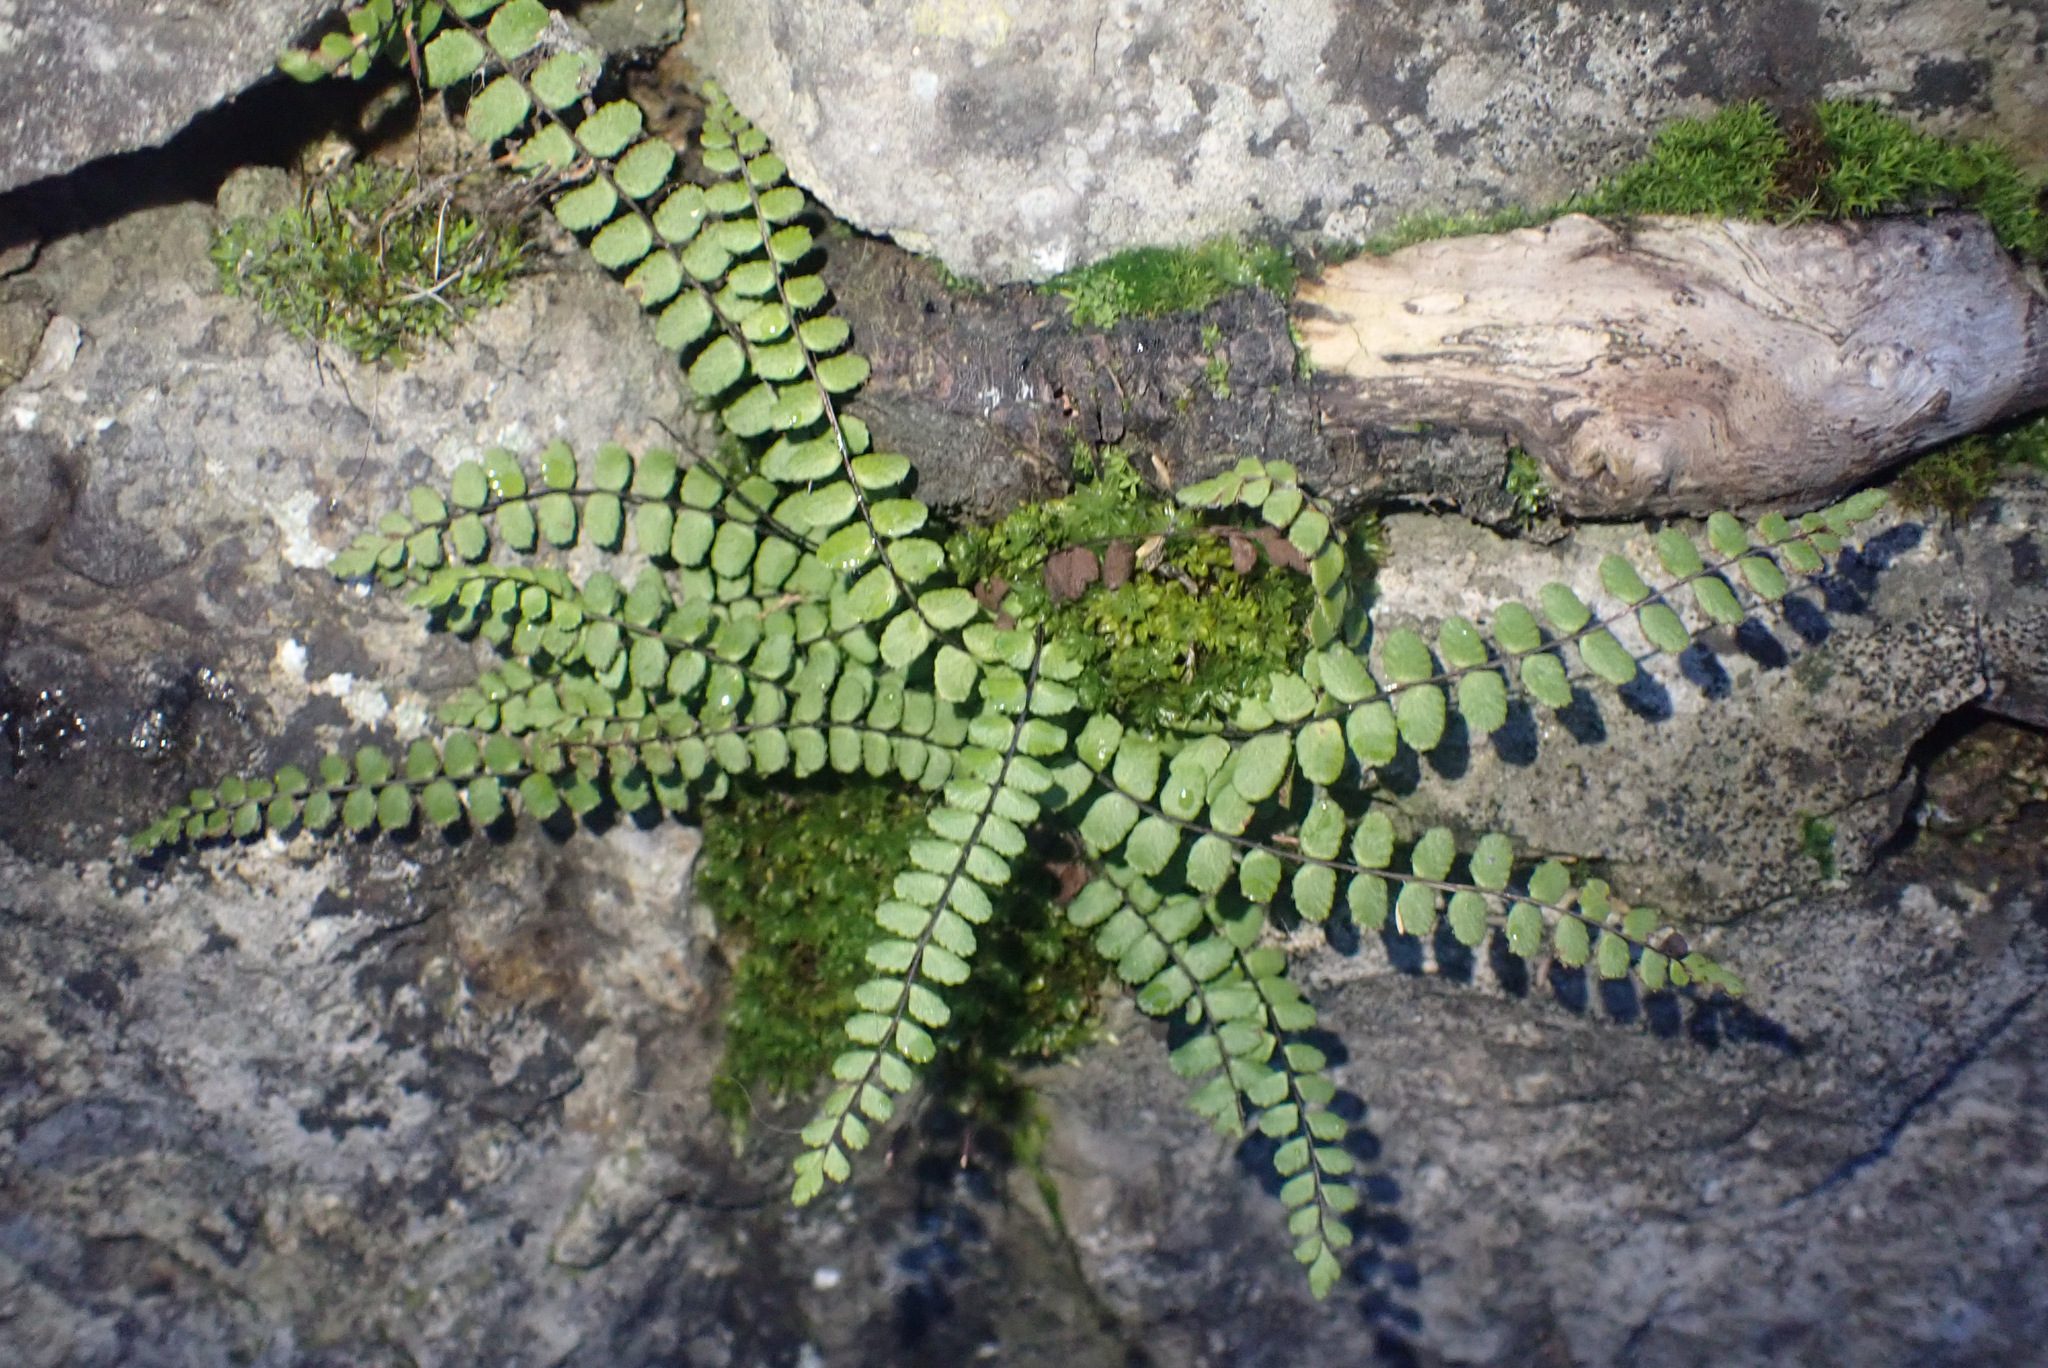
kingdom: Plantae
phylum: Tracheophyta
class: Polypodiopsida
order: Polypodiales
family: Aspleniaceae
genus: Asplenium
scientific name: Asplenium trichomanes
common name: Maidenhair spleenwort
